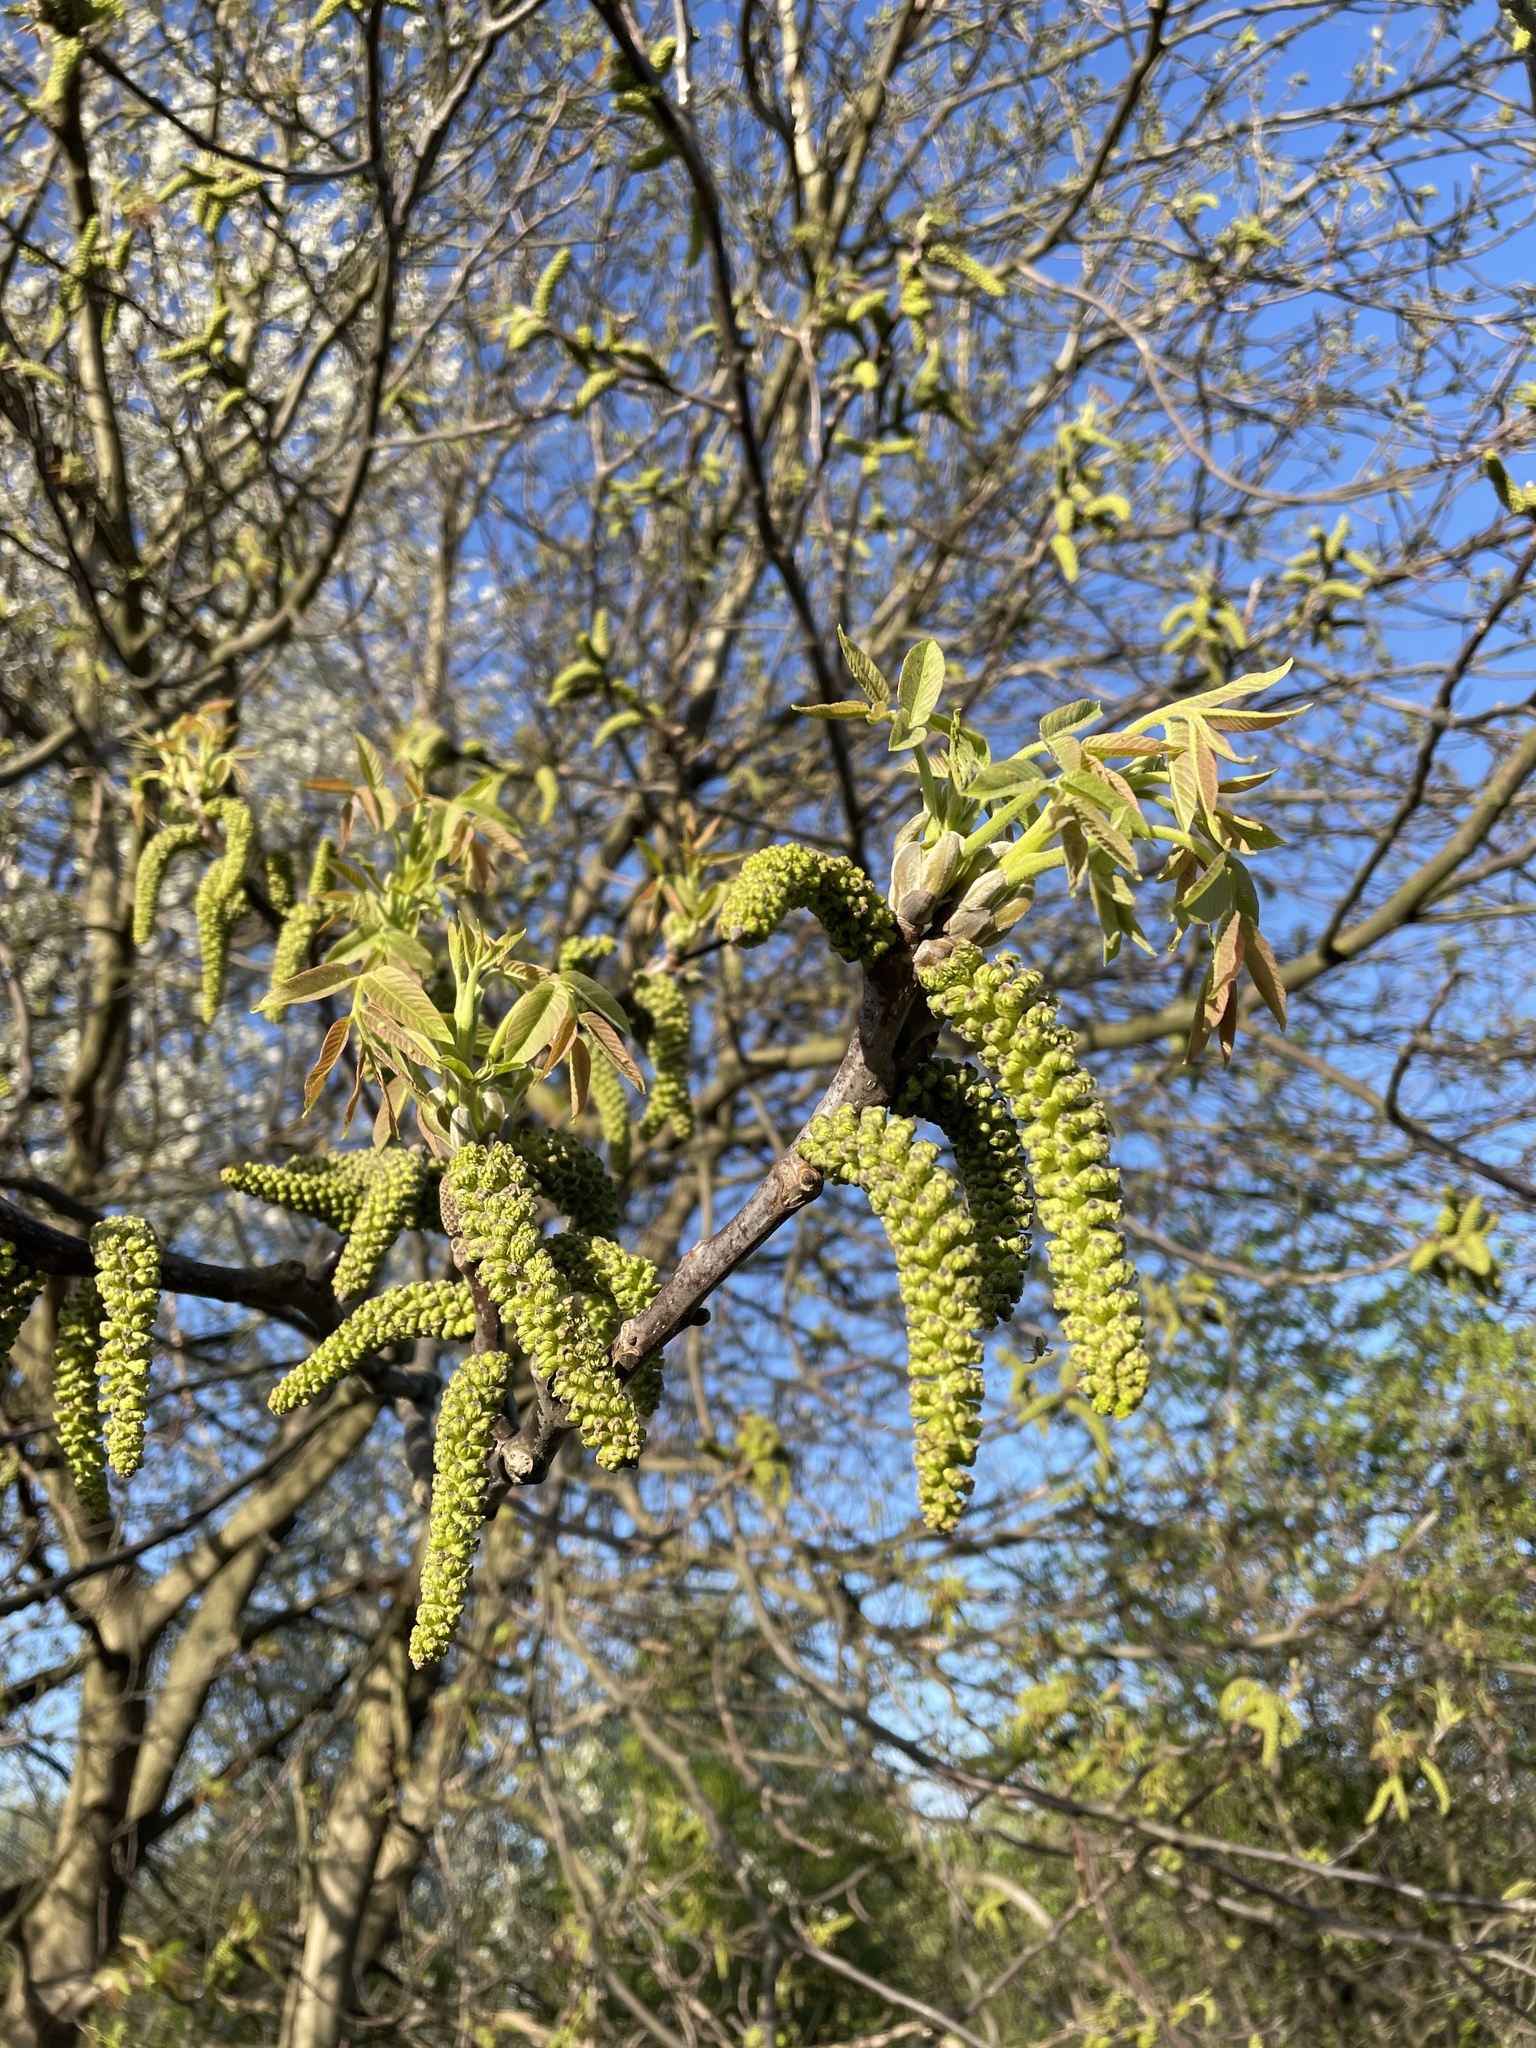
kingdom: Plantae
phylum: Tracheophyta
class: Magnoliopsida
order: Fagales
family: Juglandaceae
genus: Juglans
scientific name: Juglans regia
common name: Walnut
